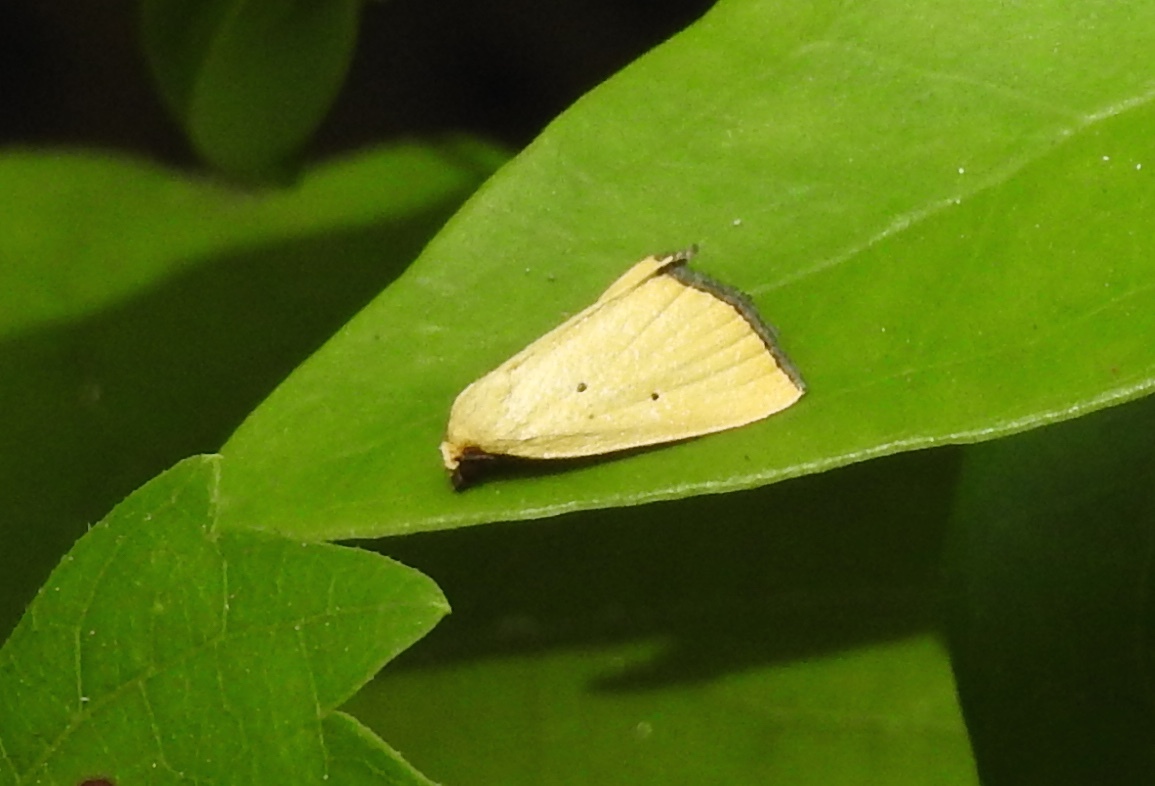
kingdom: Animalia
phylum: Arthropoda
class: Insecta
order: Lepidoptera
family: Noctuidae
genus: Marimatha
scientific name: Marimatha nigrofimbria
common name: Black-bordered lemon moth
